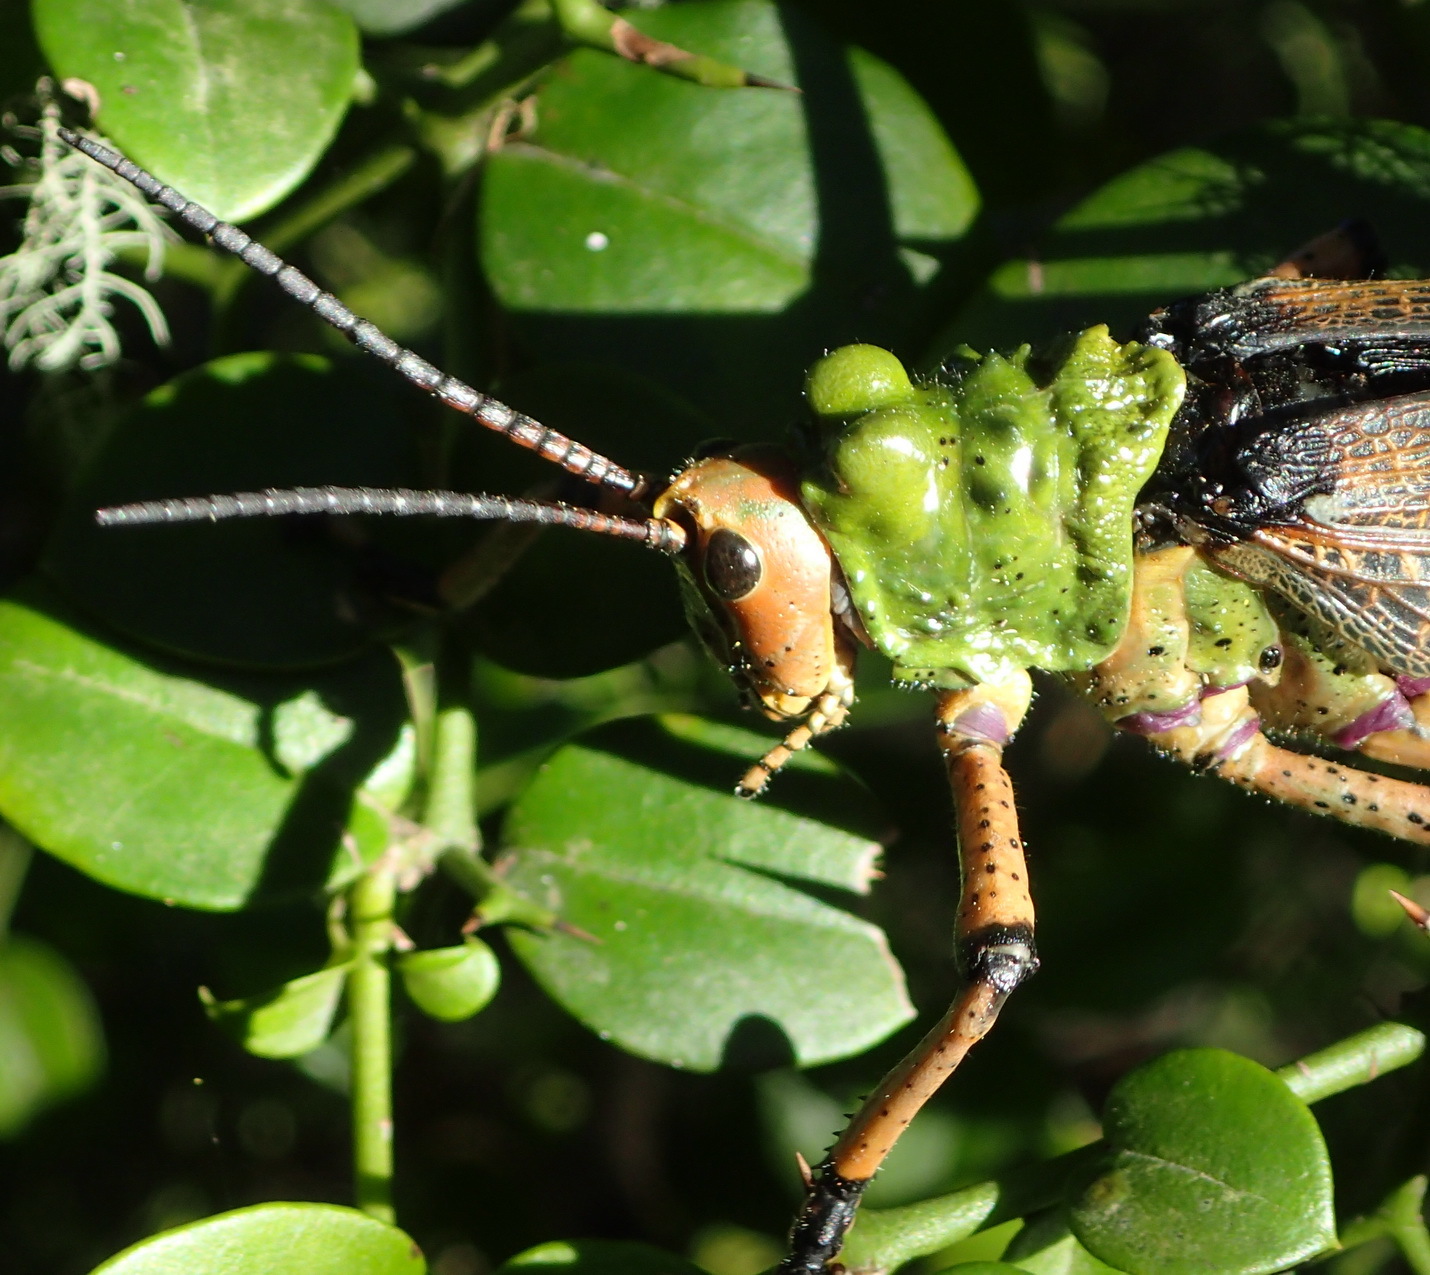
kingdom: Animalia
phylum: Arthropoda
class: Insecta
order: Orthoptera
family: Pyrgomorphidae
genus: Phymateus
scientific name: Phymateus leprosus
